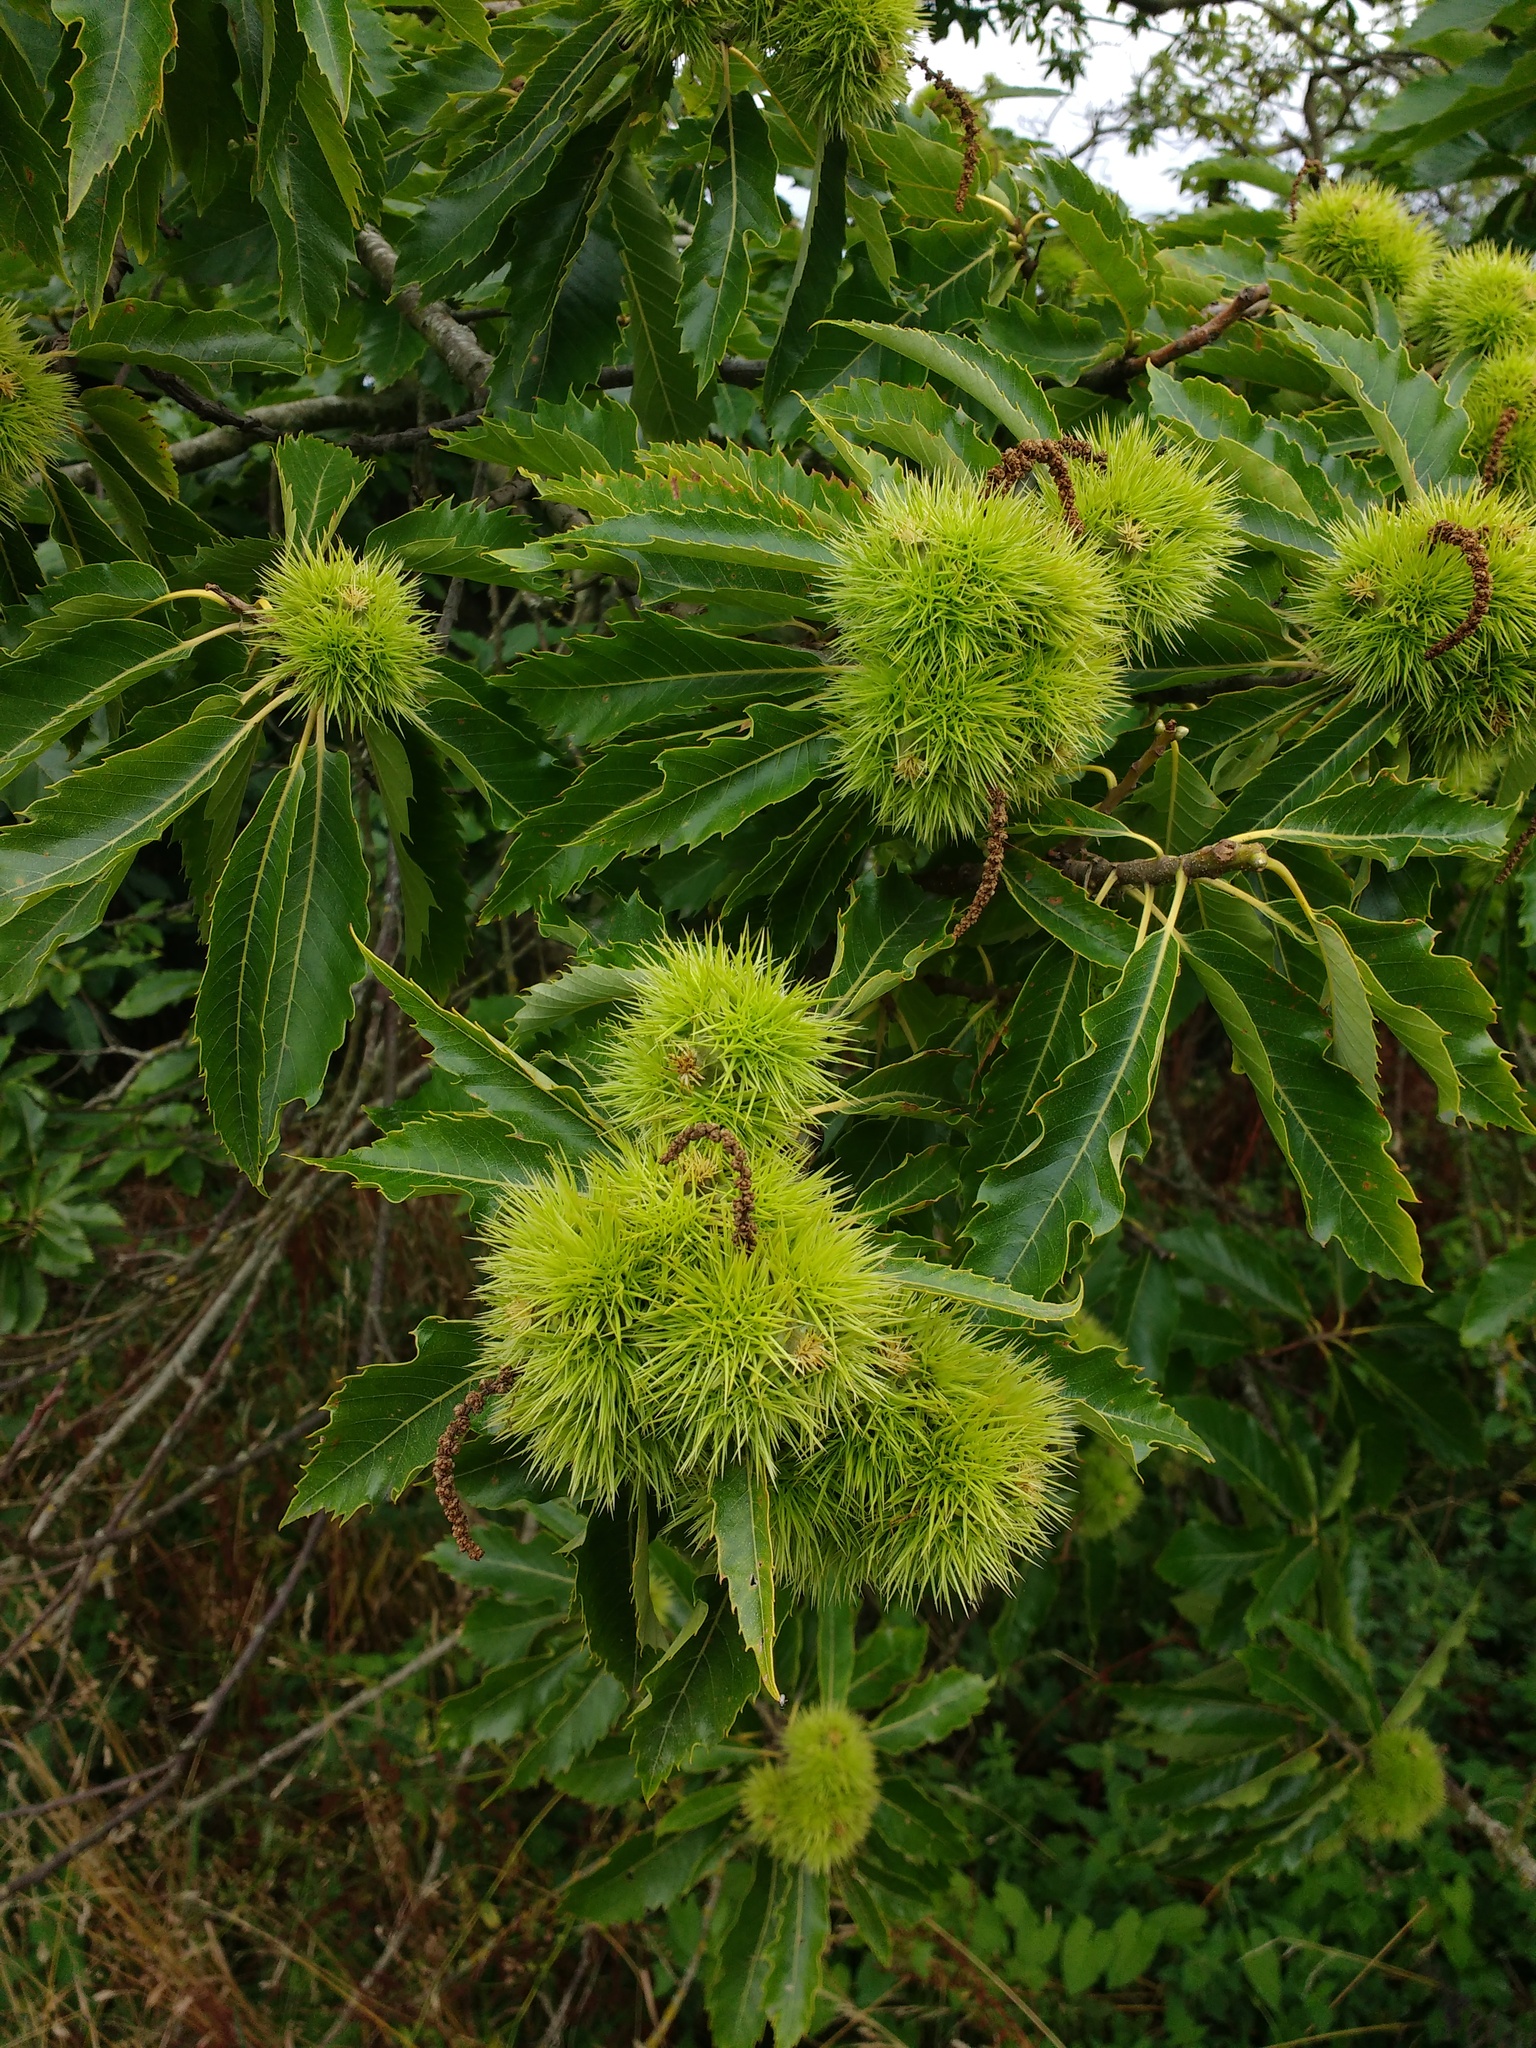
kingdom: Plantae
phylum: Tracheophyta
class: Magnoliopsida
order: Fagales
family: Fagaceae
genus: Castanea
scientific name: Castanea sativa
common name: Sweet chestnut
